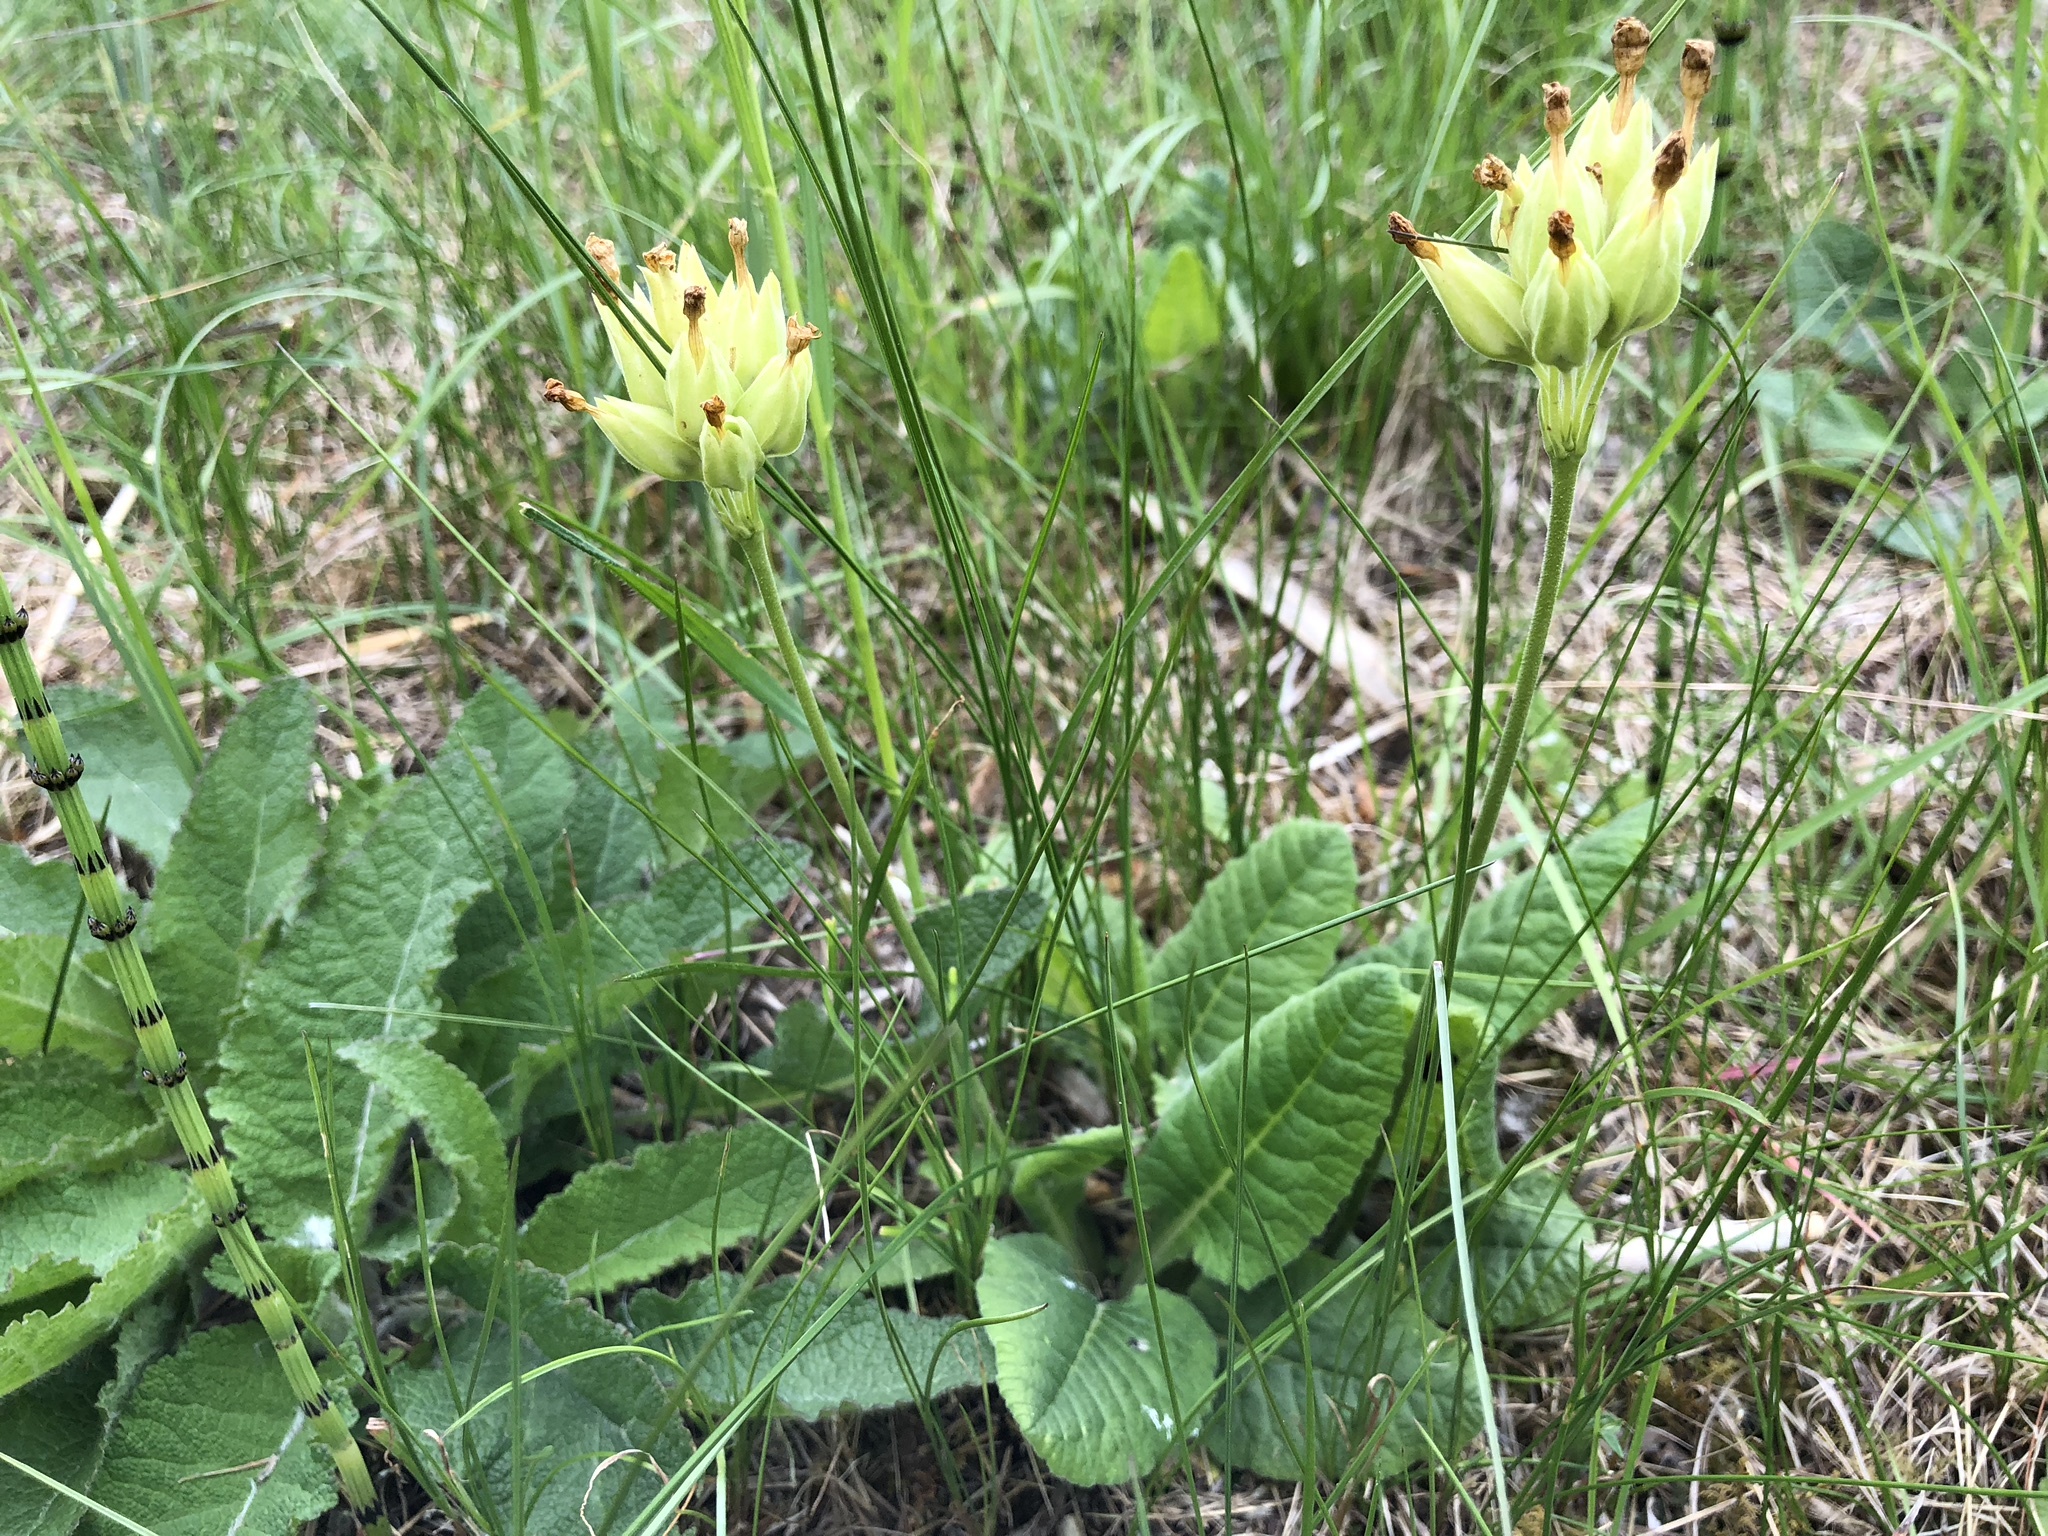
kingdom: Plantae
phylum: Tracheophyta
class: Magnoliopsida
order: Ericales
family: Primulaceae
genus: Primula
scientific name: Primula veris
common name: Cowslip
